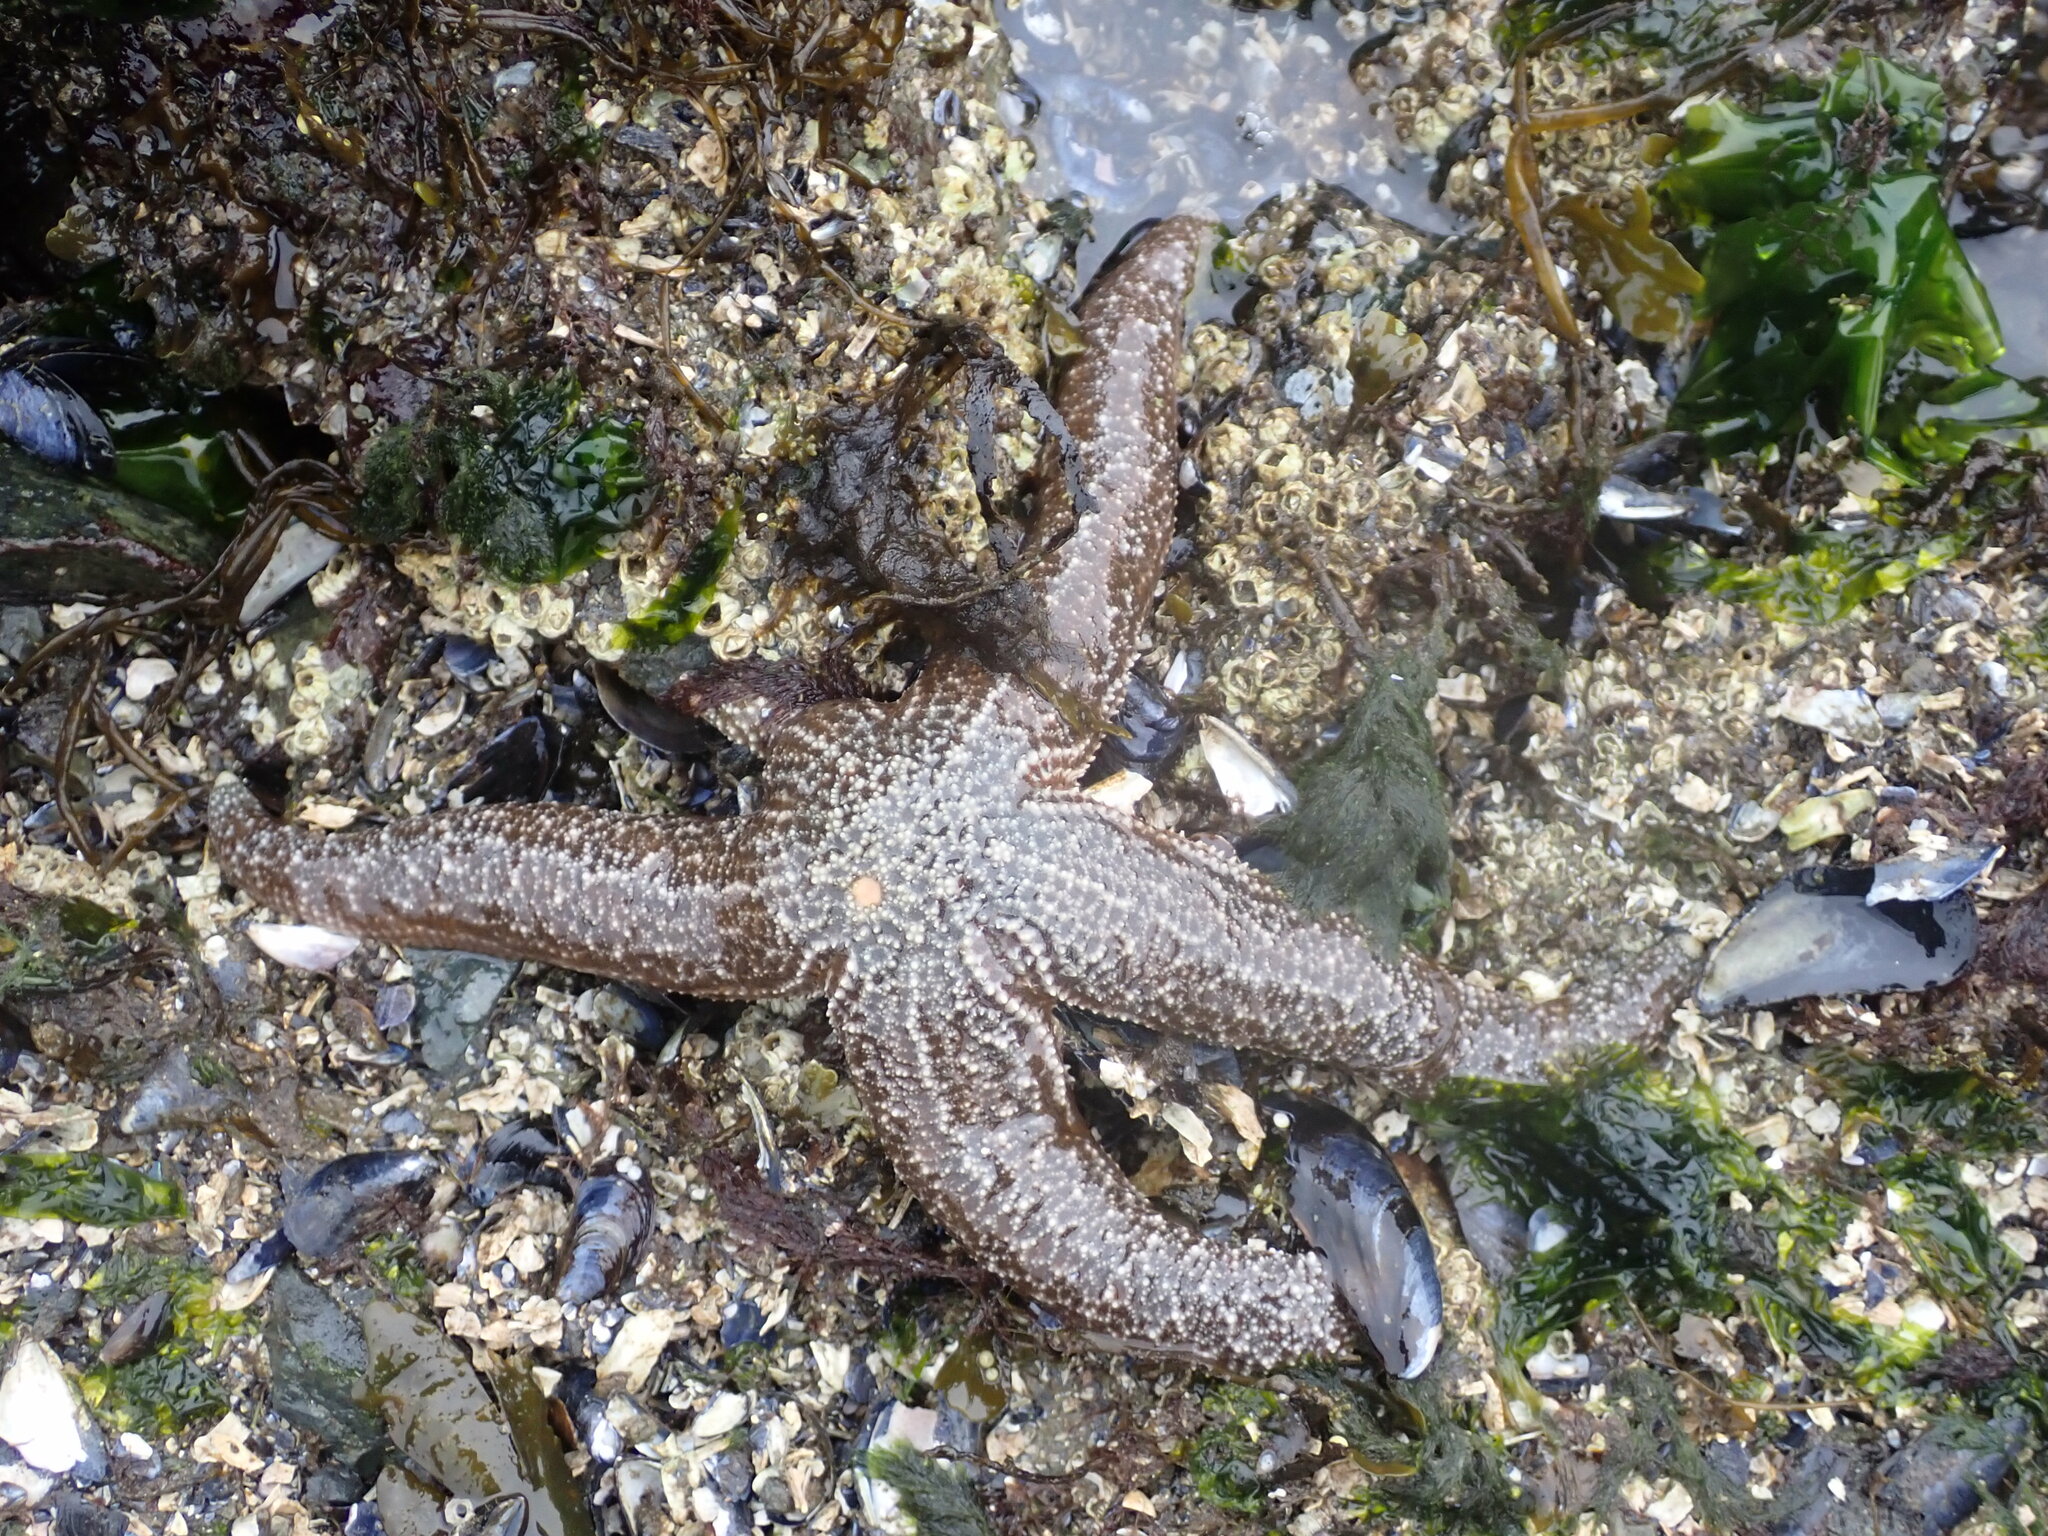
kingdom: Animalia
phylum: Echinodermata
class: Asteroidea
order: Forcipulatida
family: Asteriidae
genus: Evasterias
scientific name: Evasterias troschelii
